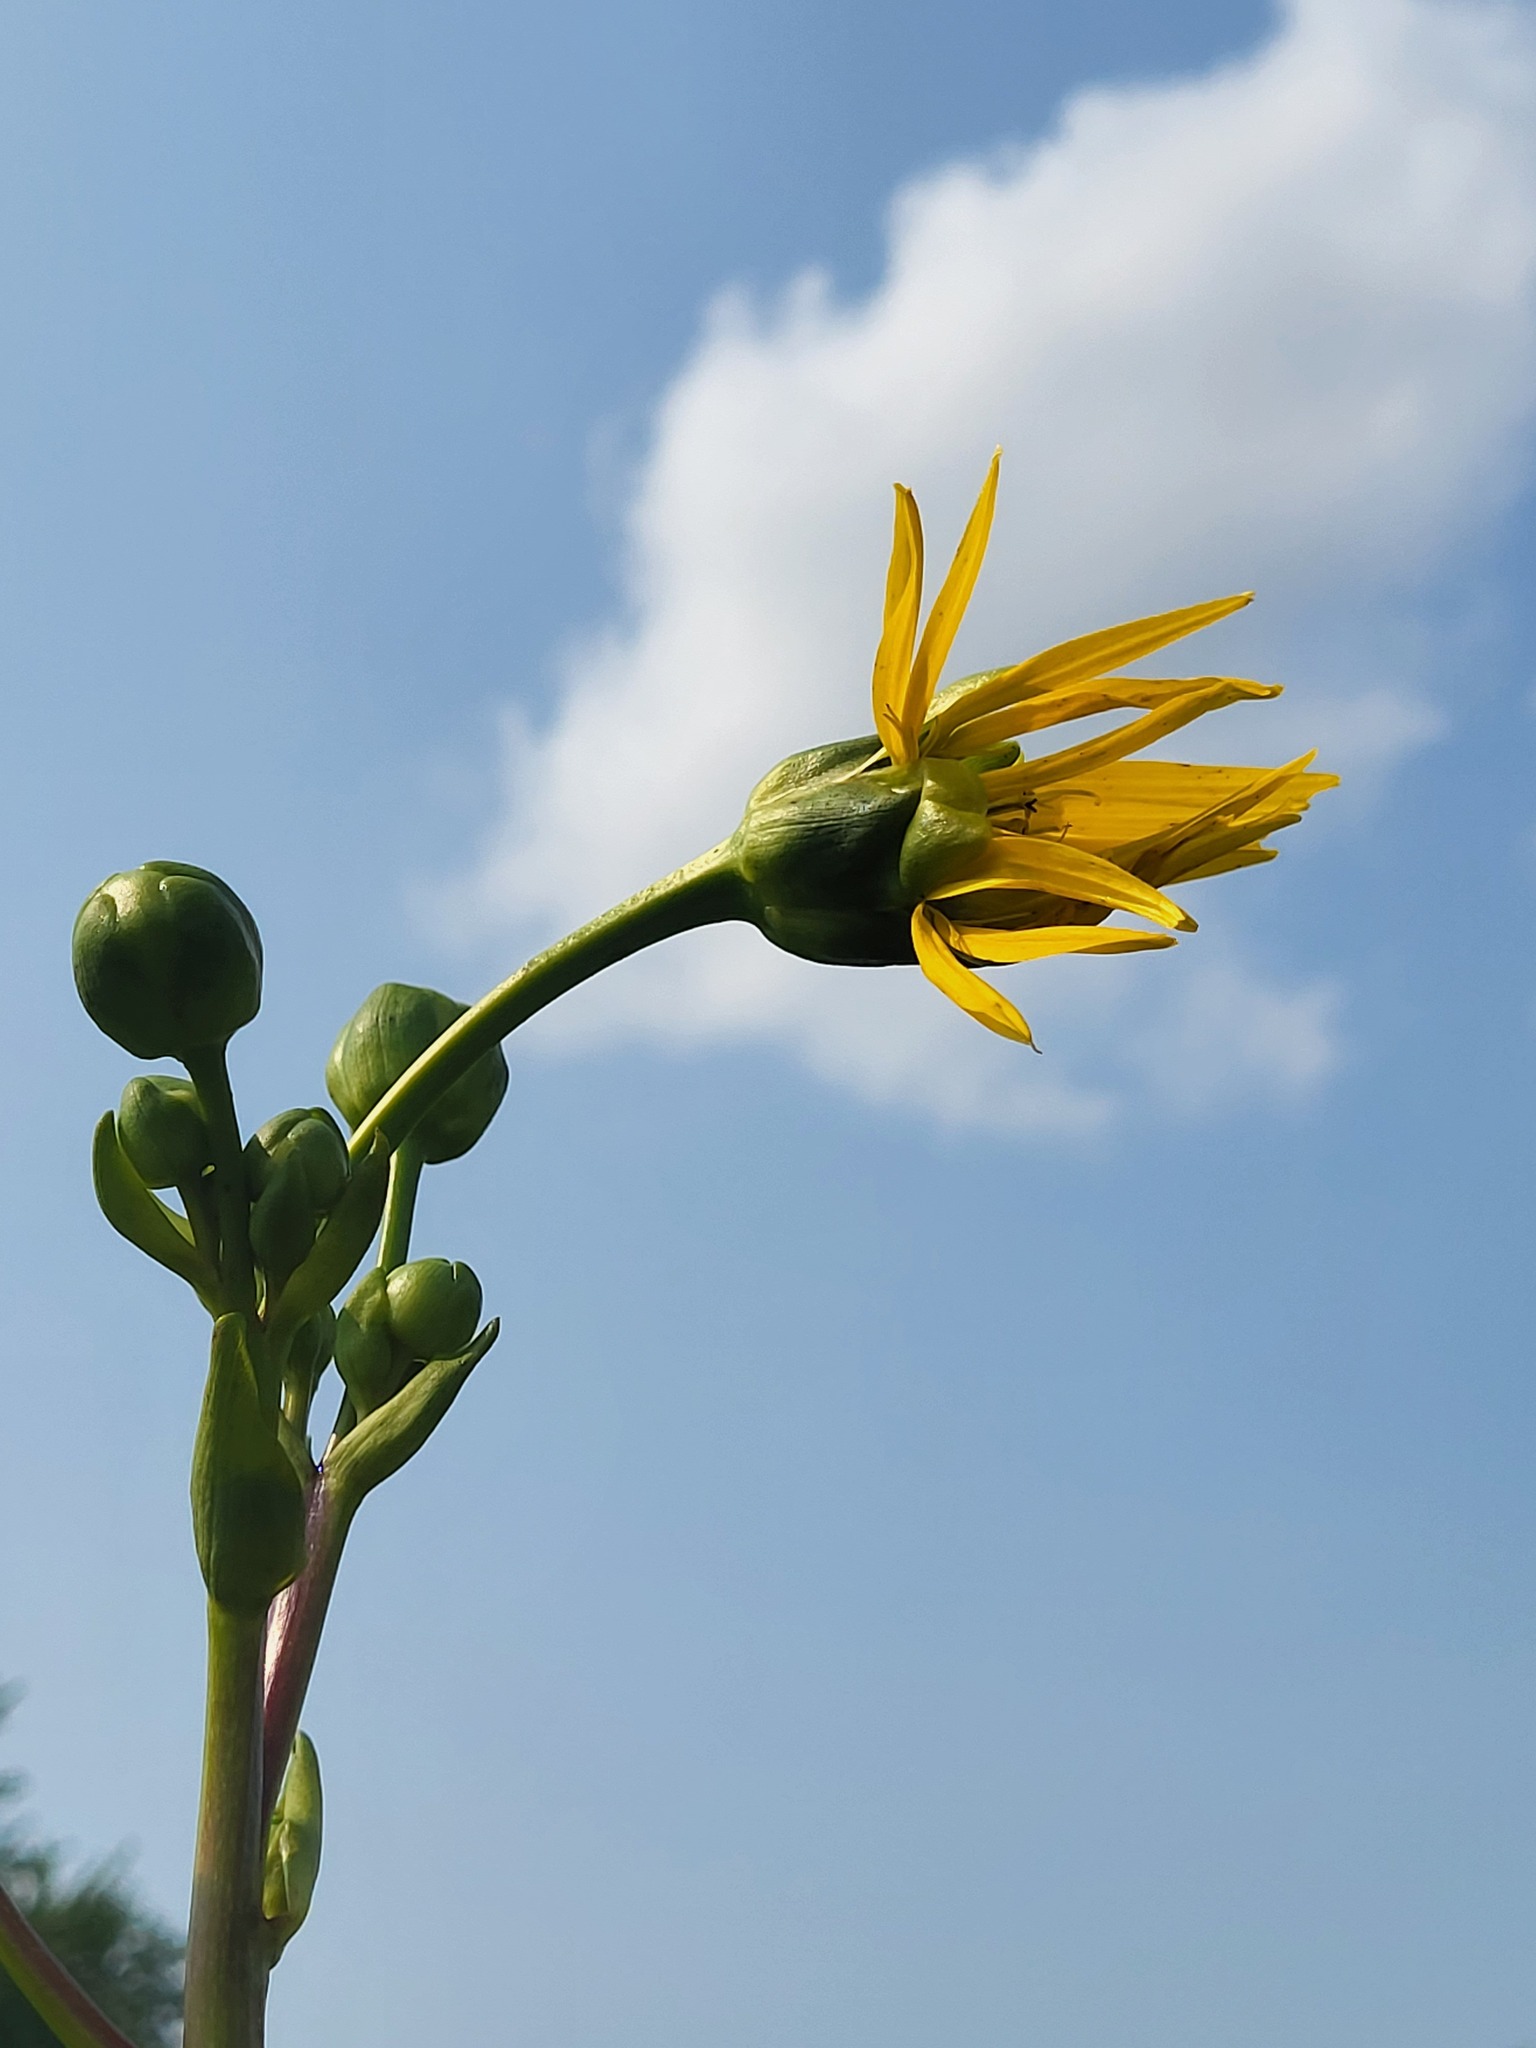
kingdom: Plantae
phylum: Tracheophyta
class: Magnoliopsida
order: Asterales
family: Asteraceae
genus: Silphium
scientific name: Silphium terebinthinaceum
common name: Basal-leaf rosinweed
